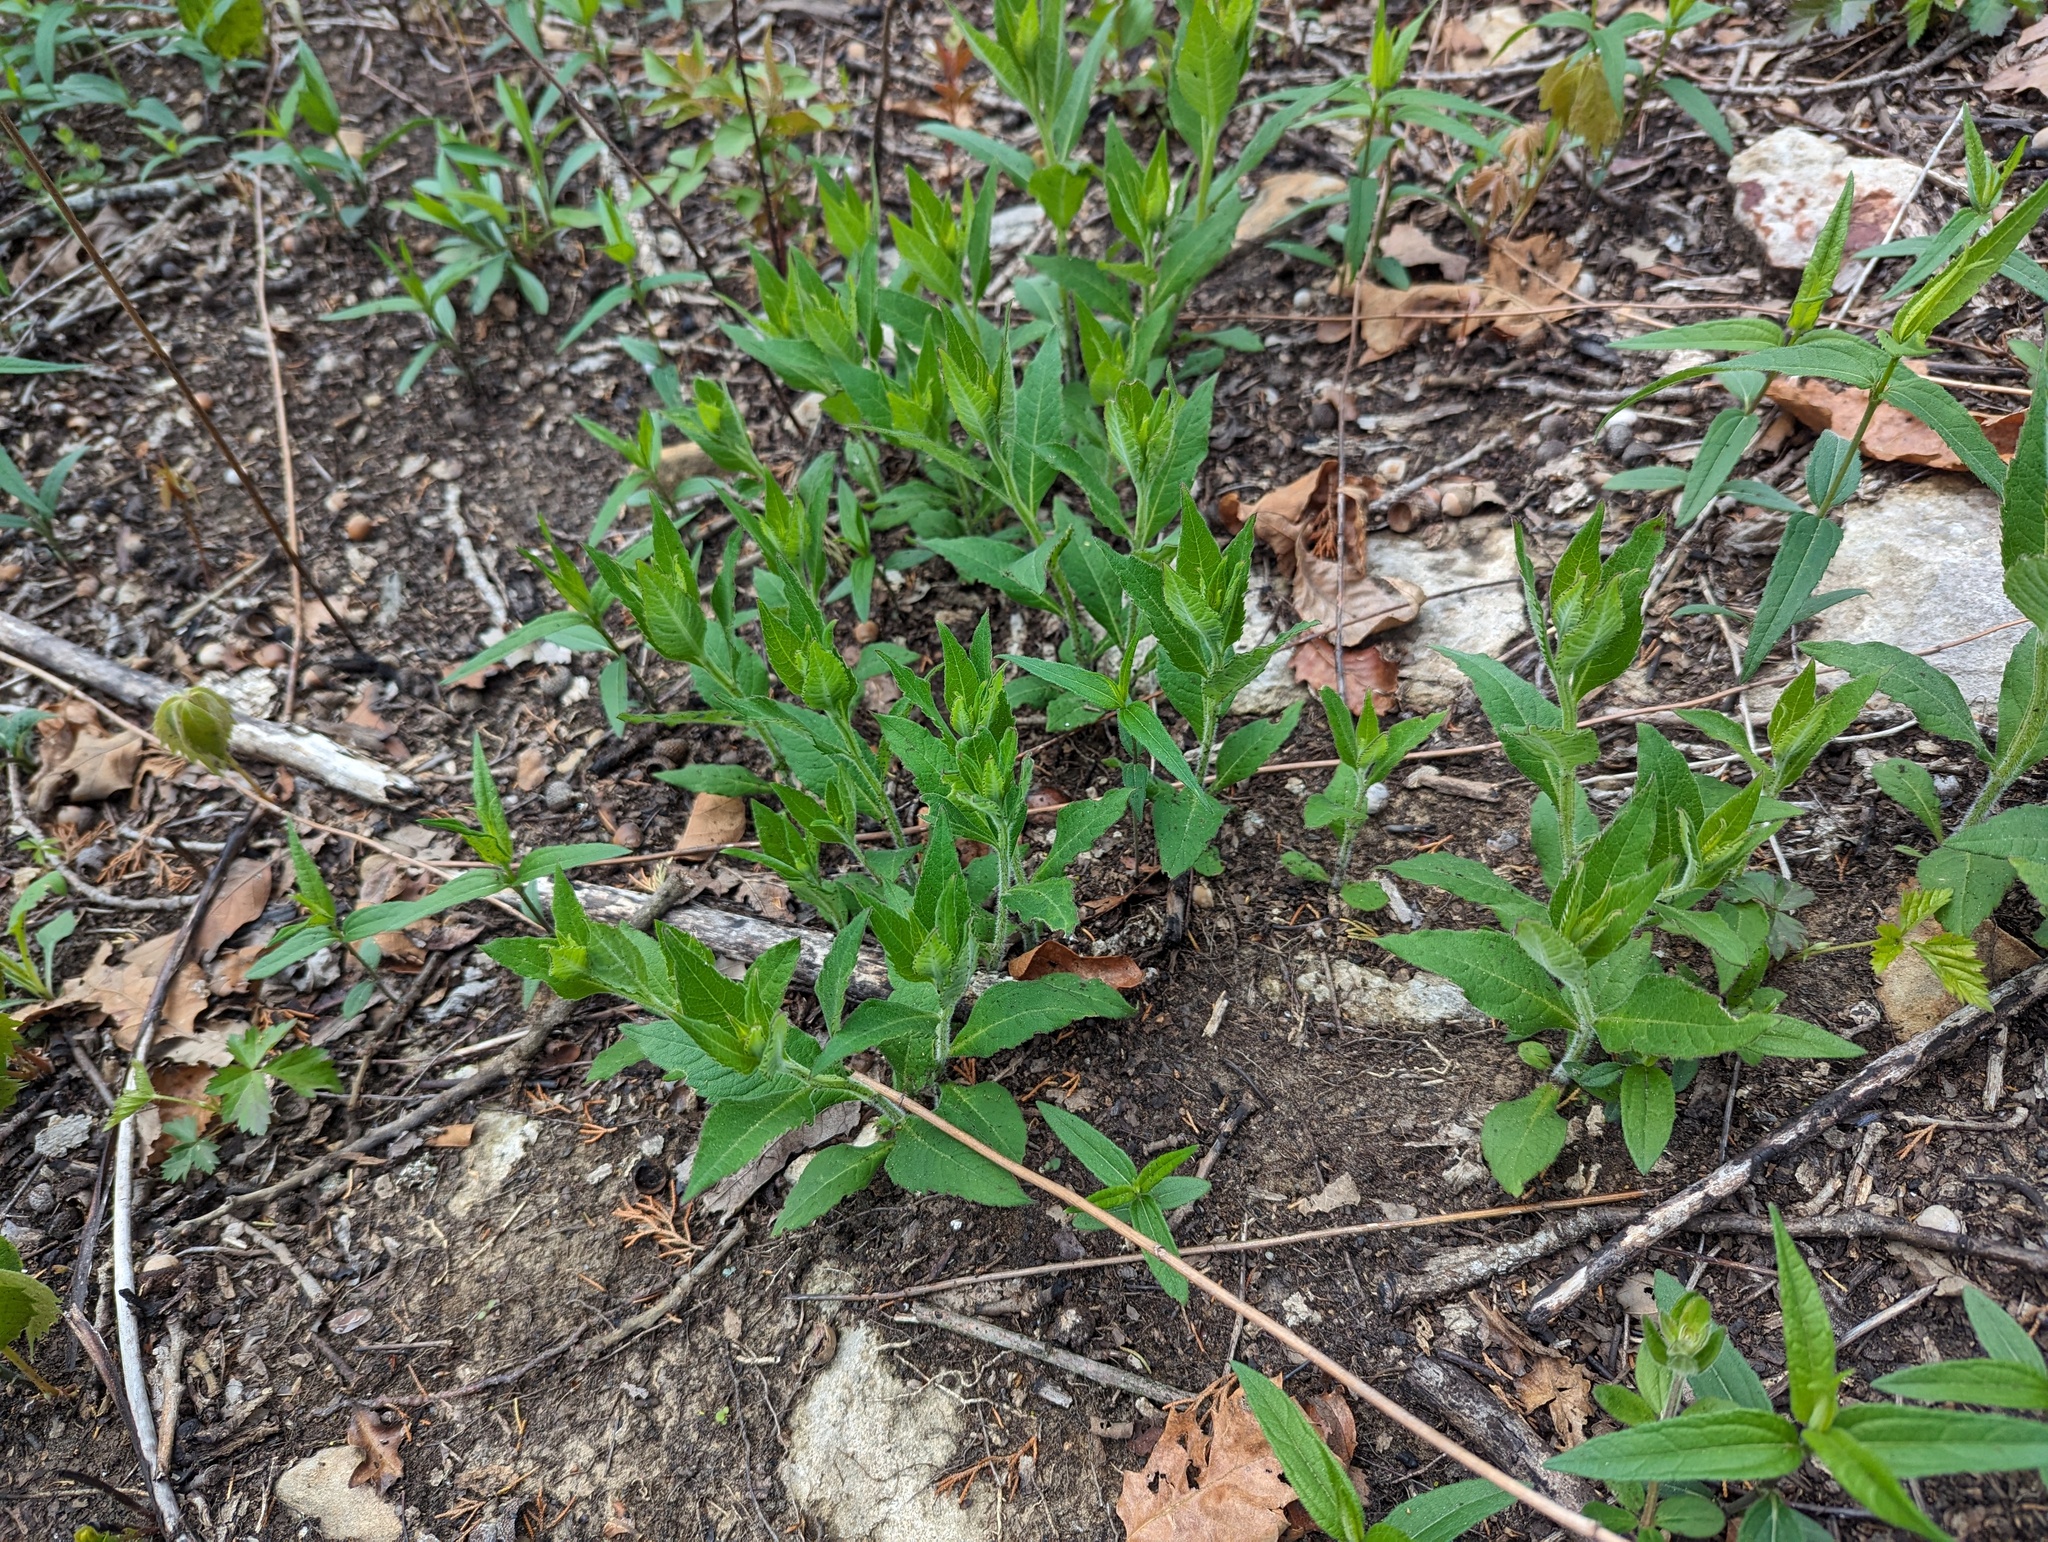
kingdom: Plantae
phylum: Tracheophyta
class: Magnoliopsida
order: Asterales
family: Asteraceae
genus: Verbesina
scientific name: Verbesina helianthoides
